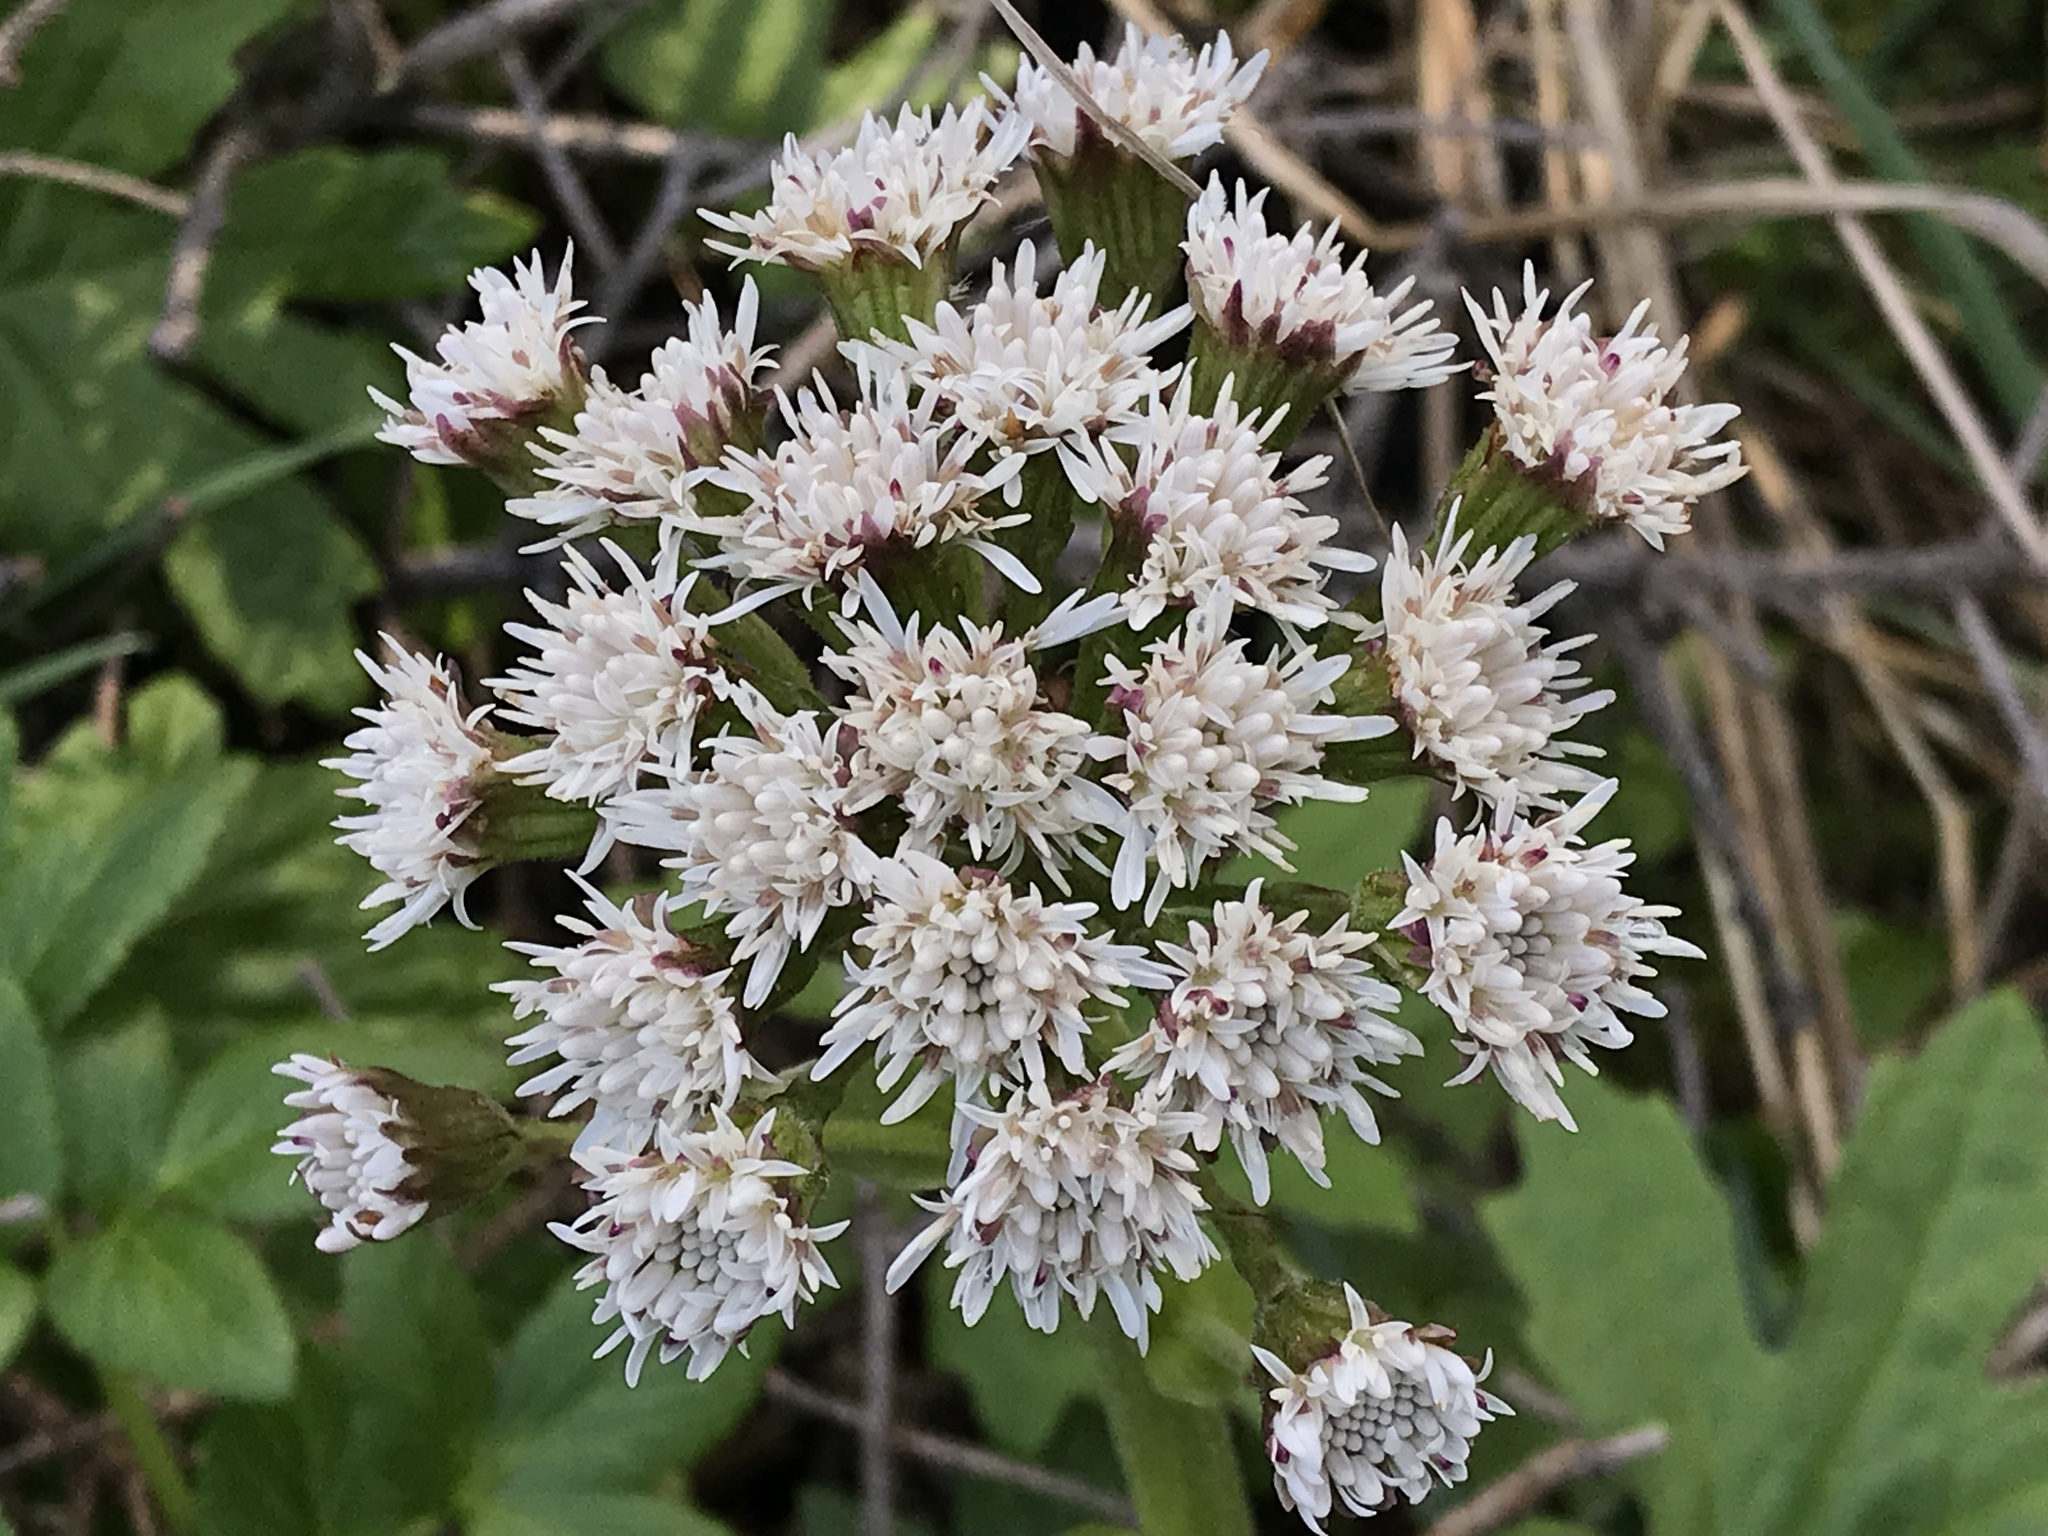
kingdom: Plantae
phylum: Tracheophyta
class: Magnoliopsida
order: Asterales
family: Asteraceae
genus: Petasites
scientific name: Petasites frigidus
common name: Arctic butterbur
